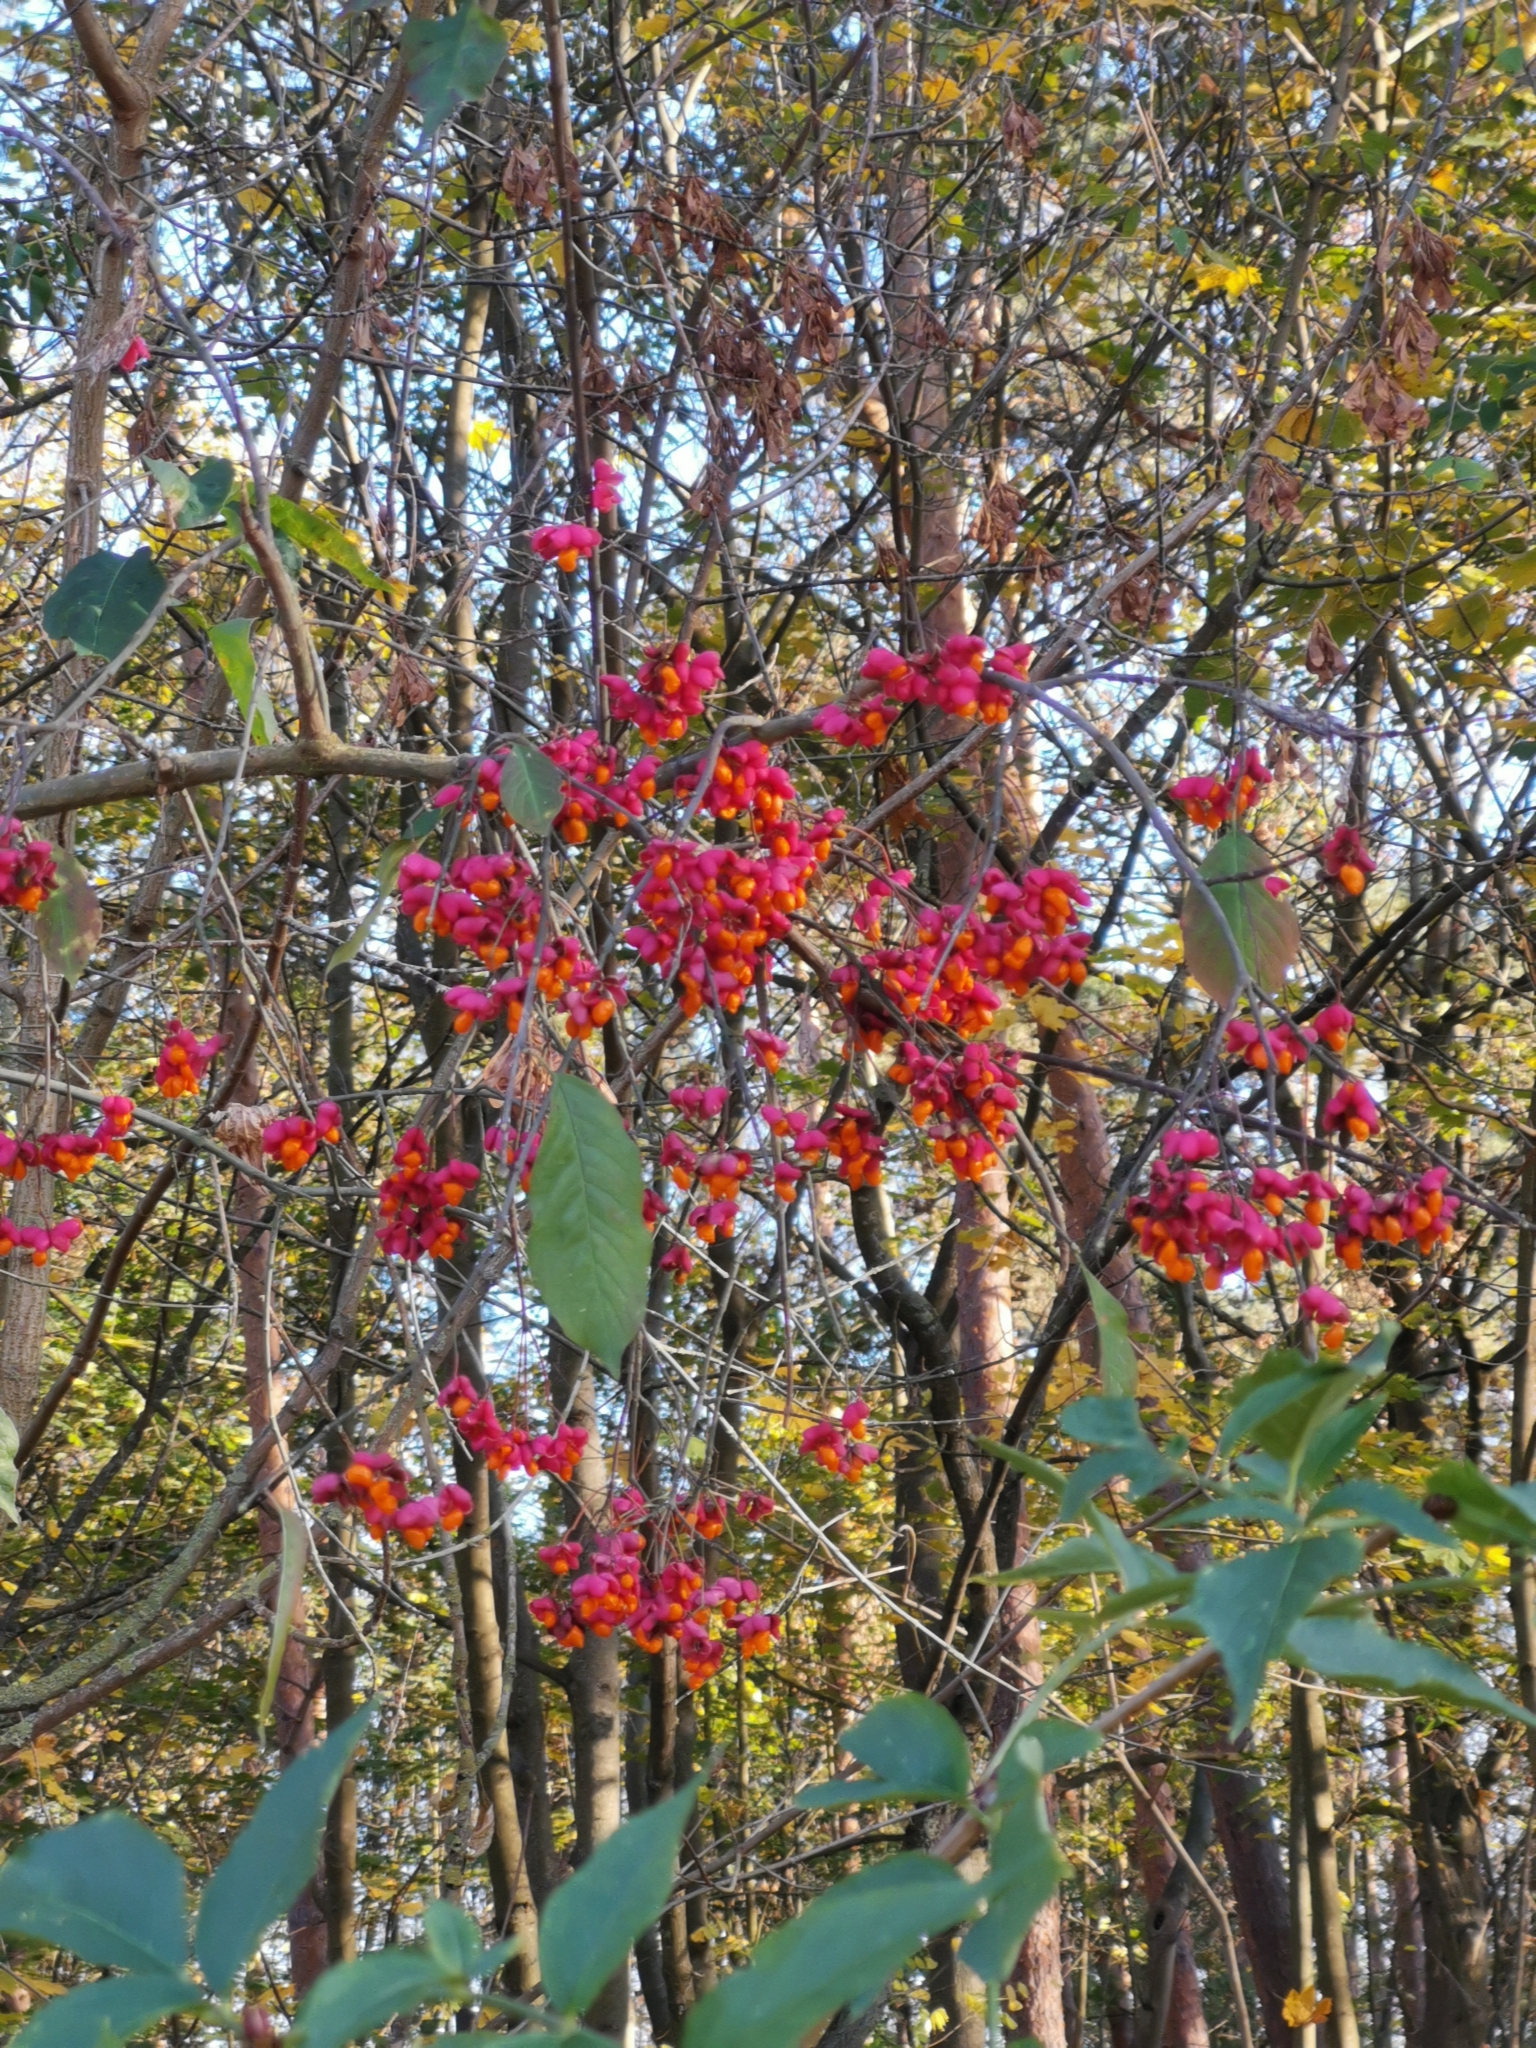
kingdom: Plantae
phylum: Tracheophyta
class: Magnoliopsida
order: Celastrales
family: Celastraceae
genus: Euonymus
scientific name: Euonymus europaeus
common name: Spindle
